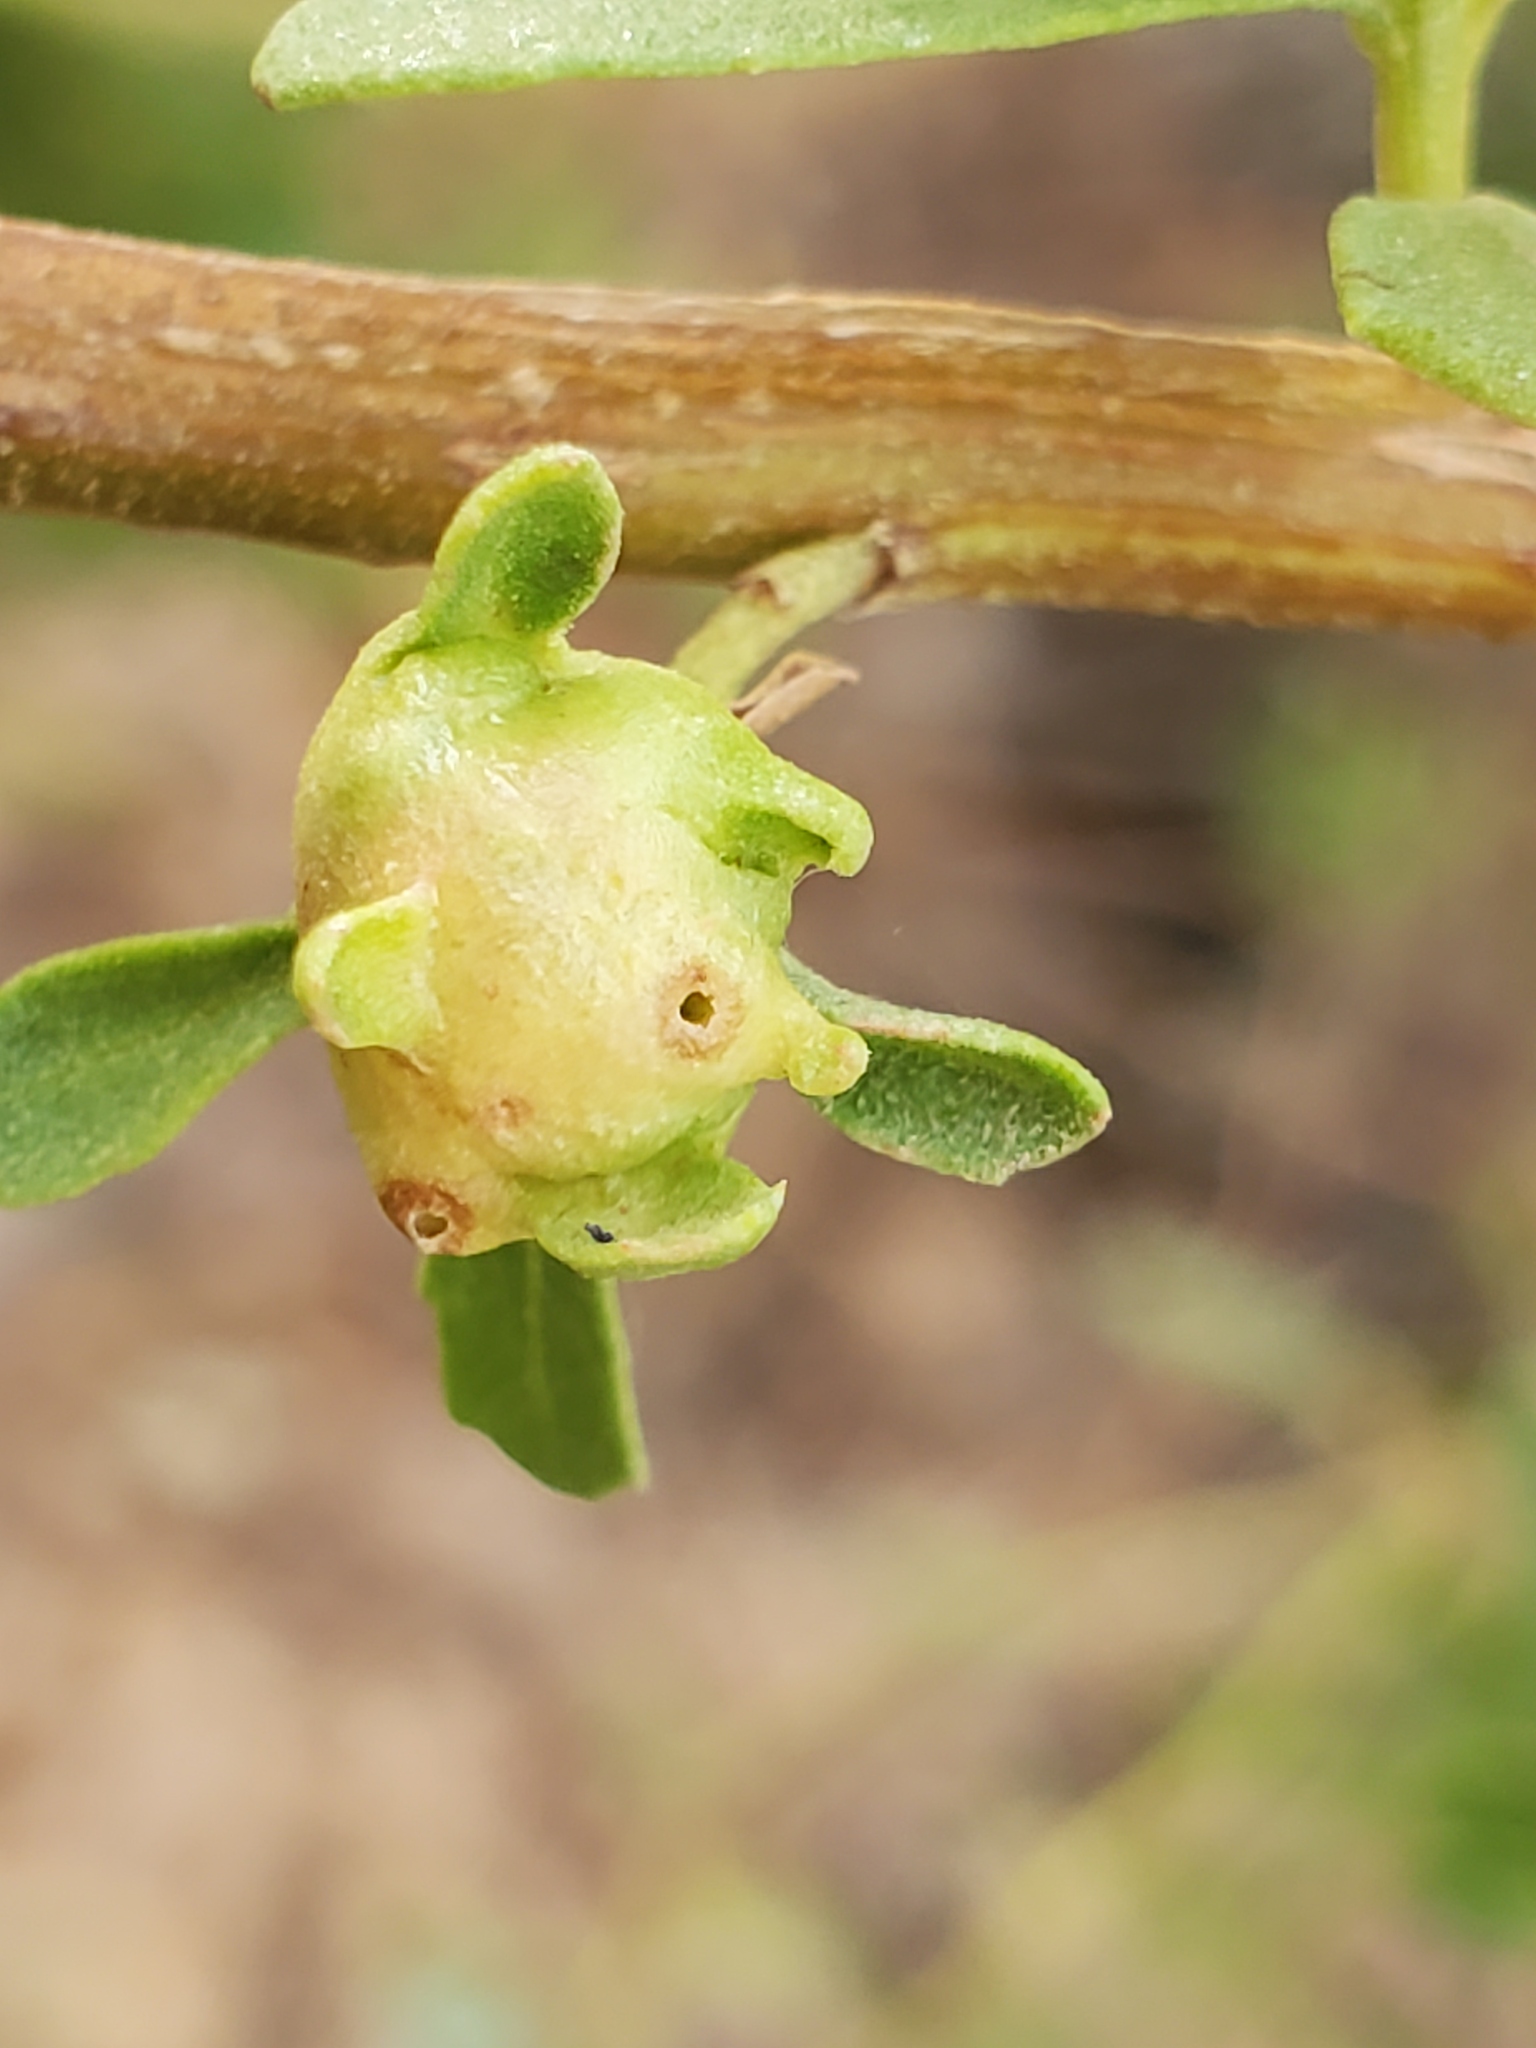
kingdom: Animalia
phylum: Arthropoda
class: Insecta
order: Diptera
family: Cecidomyiidae
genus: Rhopalomyia
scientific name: Rhopalomyia californica
